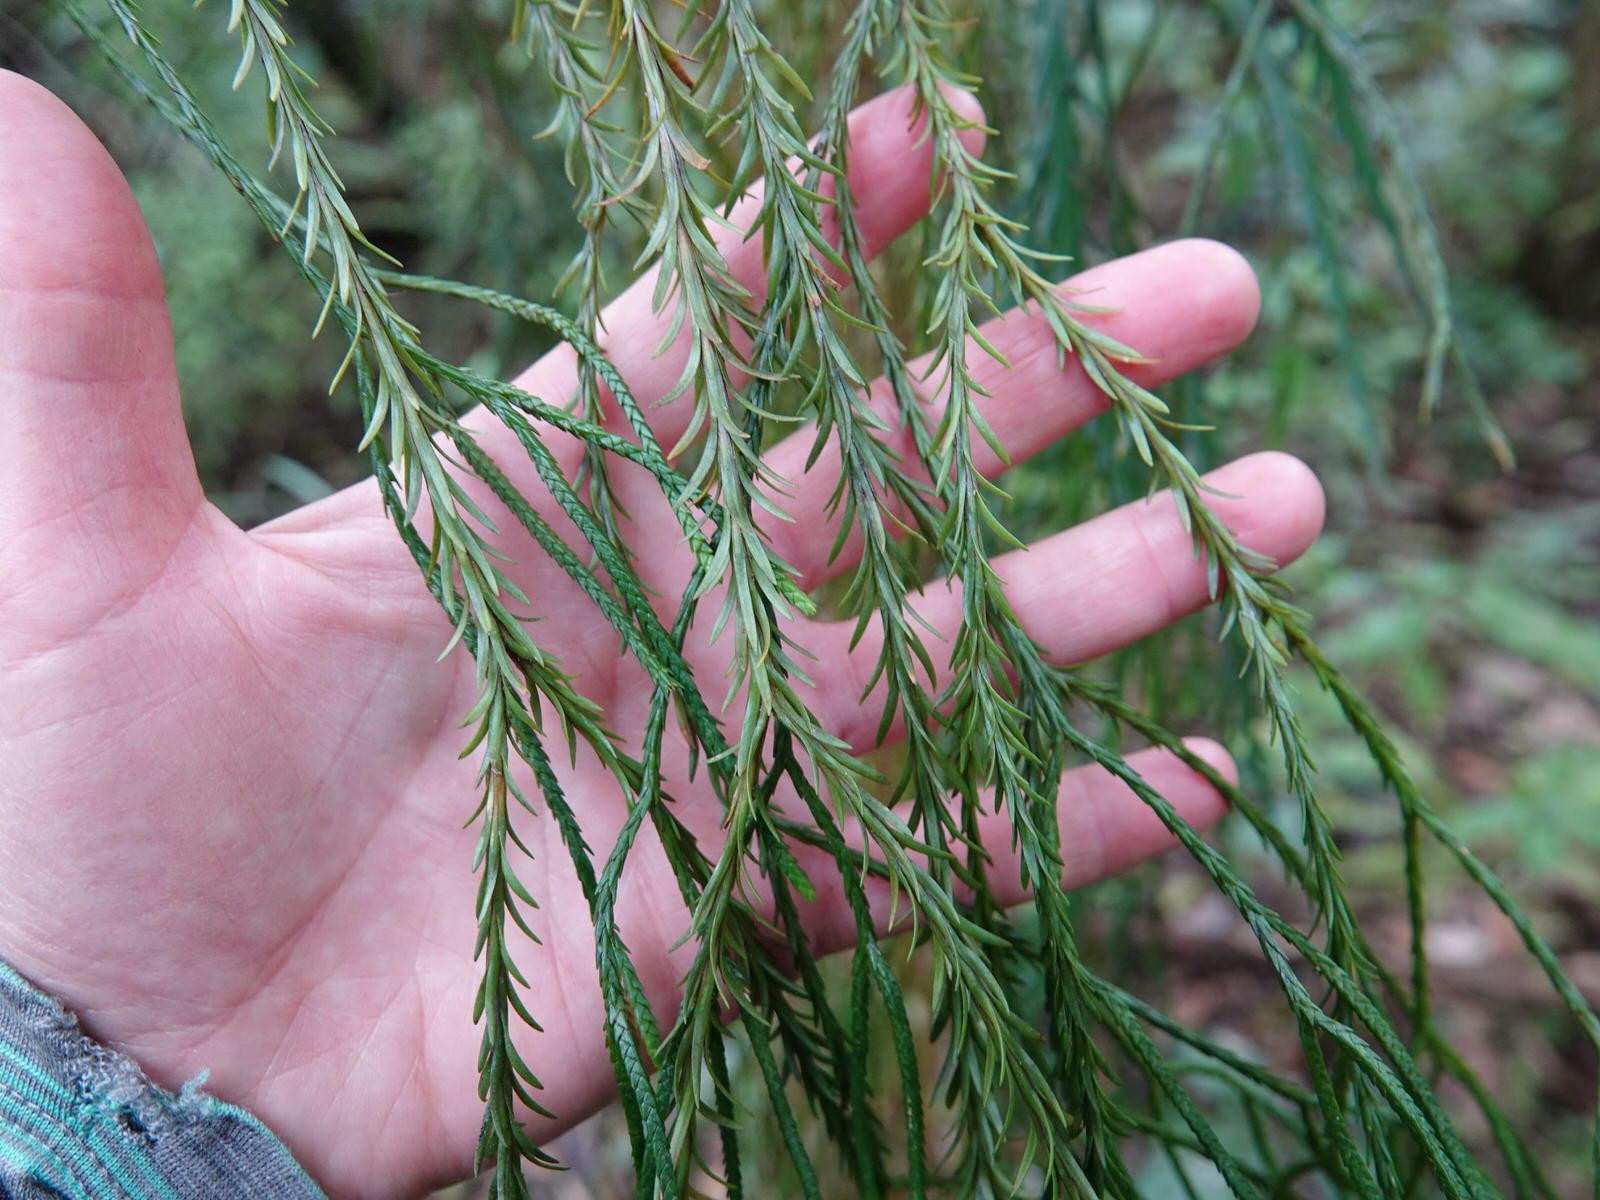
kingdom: Plantae
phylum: Tracheophyta
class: Lycopodiopsida
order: Lycopodiales
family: Lycopodiaceae
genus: Phlegmariurus
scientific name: Phlegmariurus billardierei
